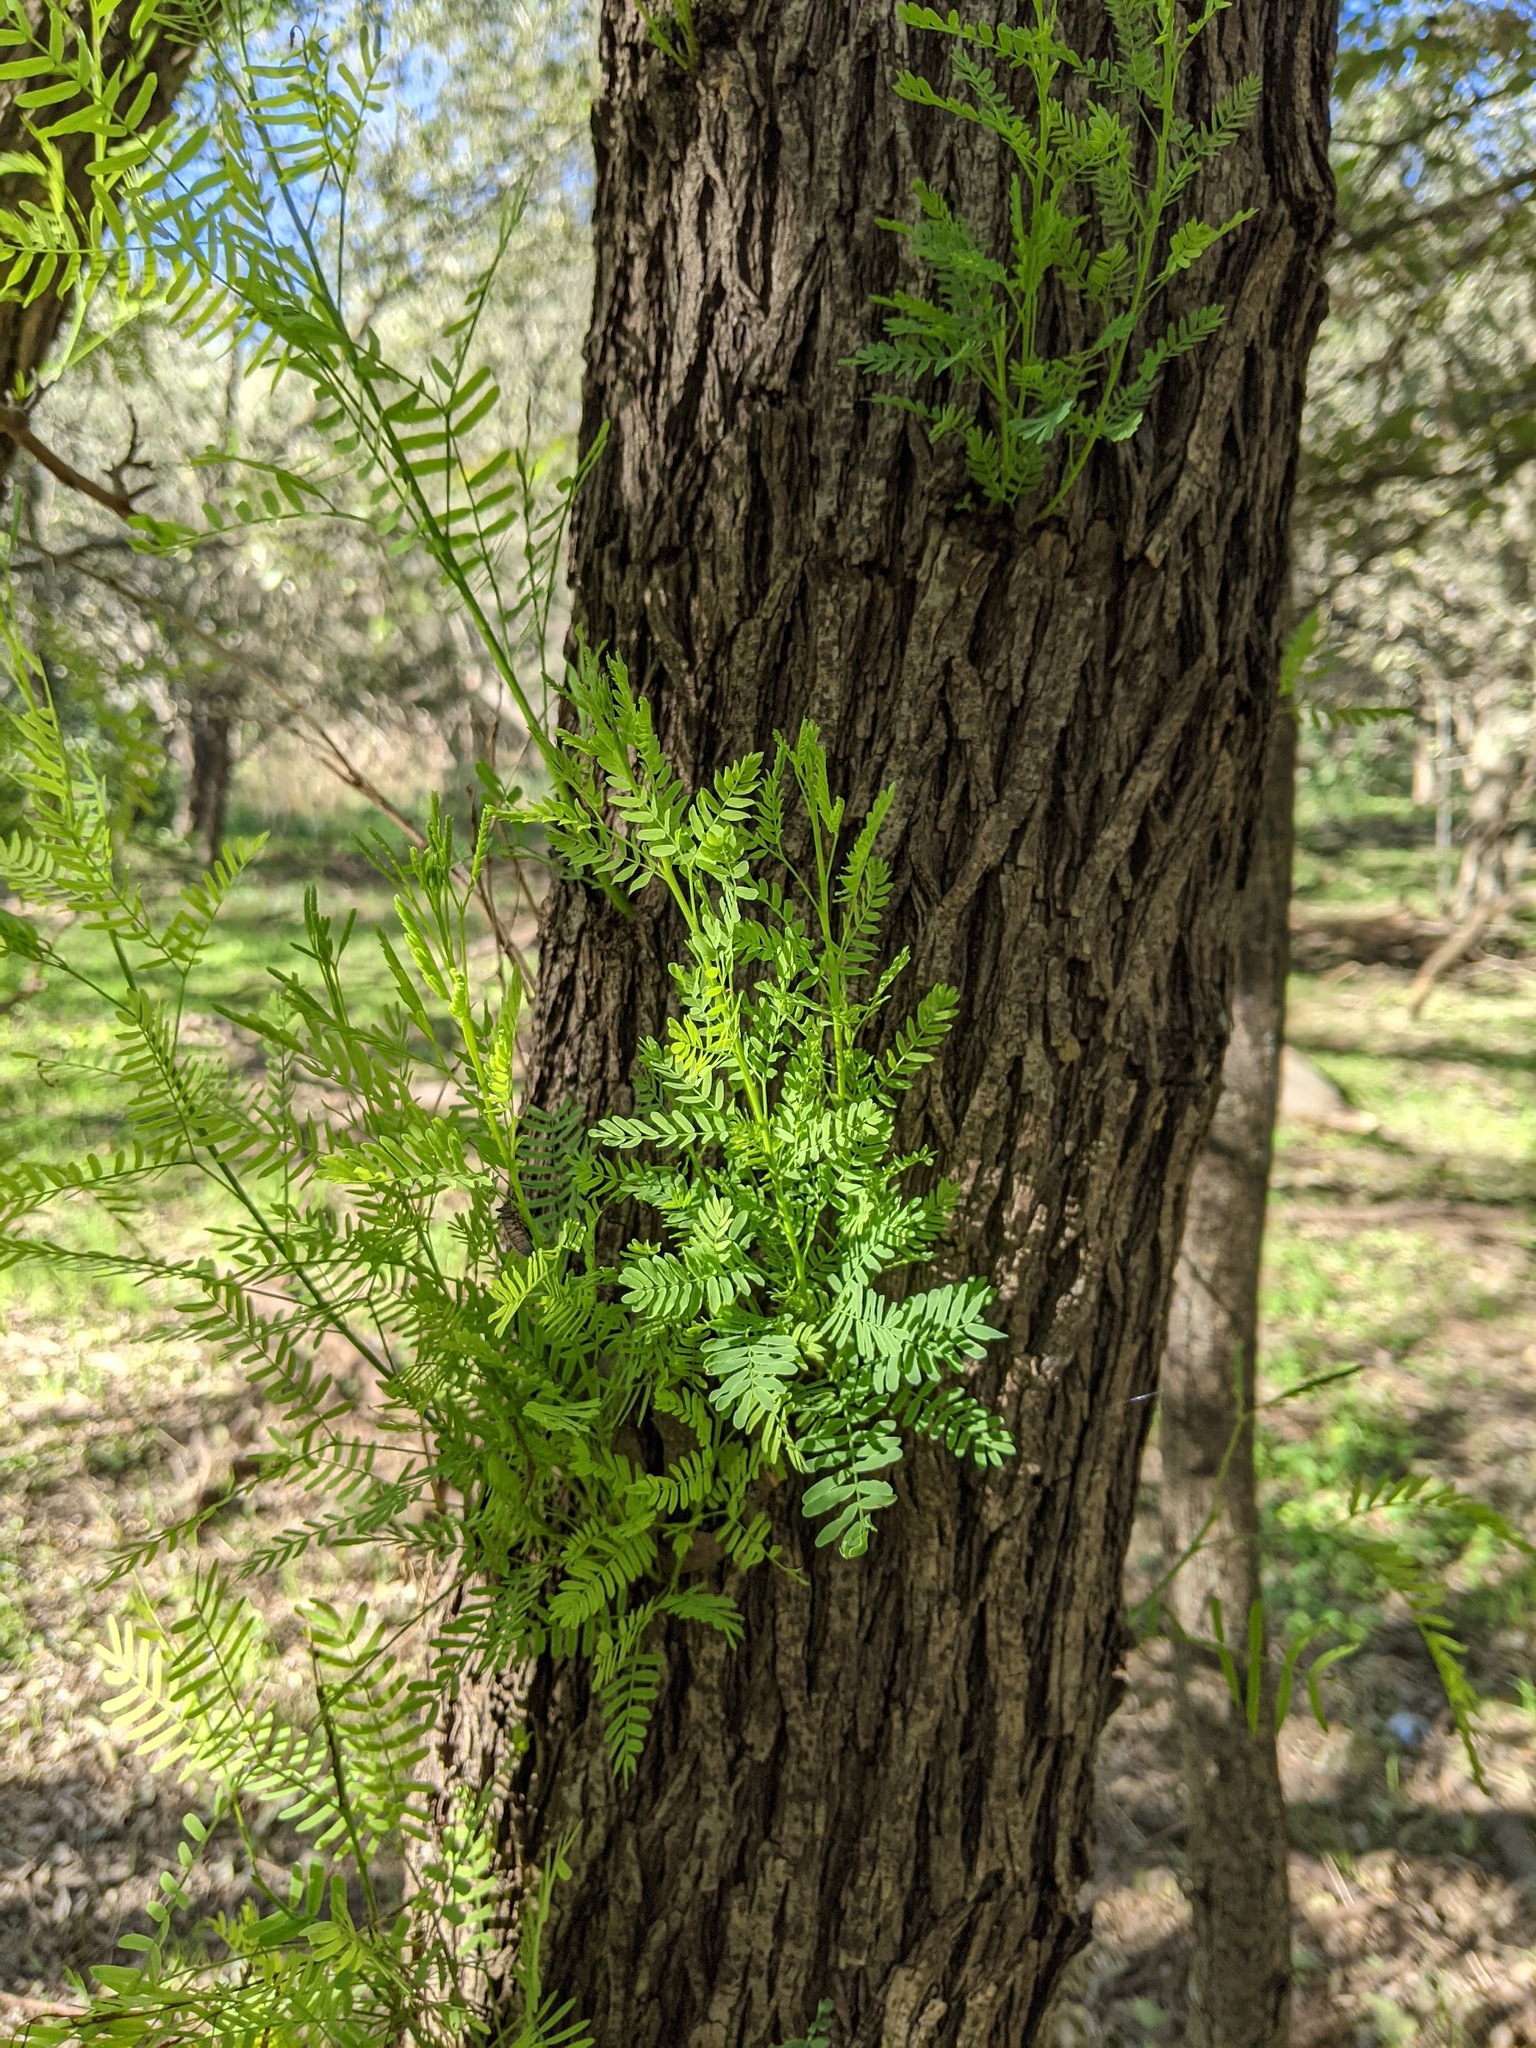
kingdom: Plantae
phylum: Tracheophyta
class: Magnoliopsida
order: Fabales
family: Fabaceae
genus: Prosopis
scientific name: Prosopis glandulosa
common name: Honey mesquite
